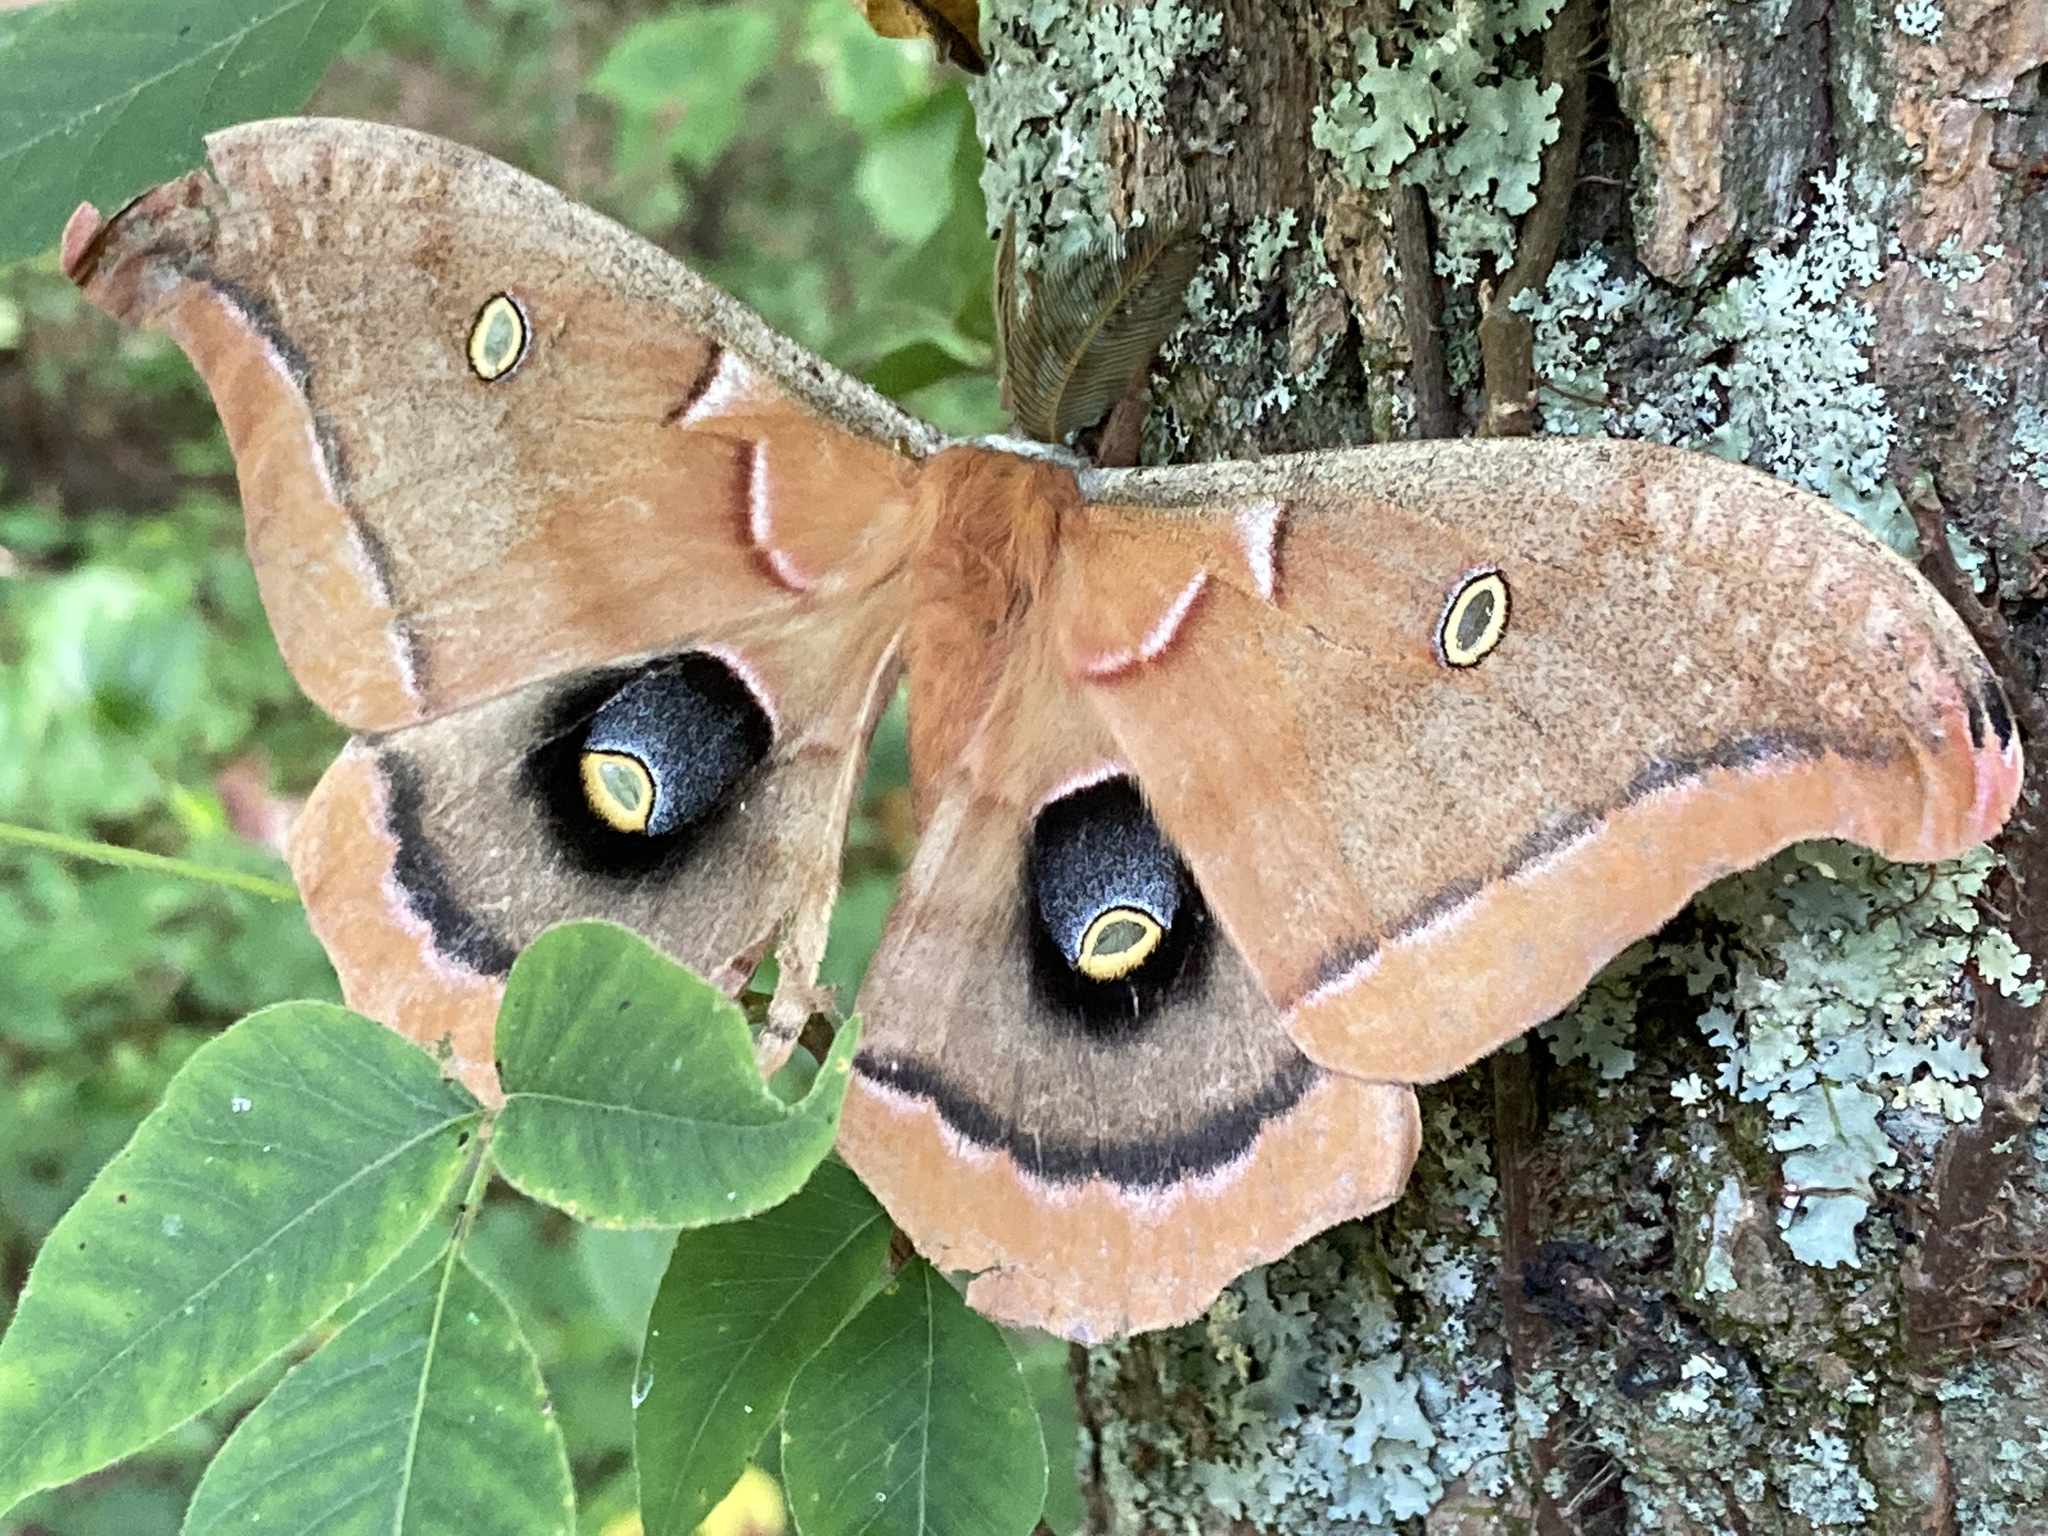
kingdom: Animalia
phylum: Arthropoda
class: Insecta
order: Lepidoptera
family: Saturniidae
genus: Antheraea
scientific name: Antheraea polyphemus
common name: Polyphemus moth
